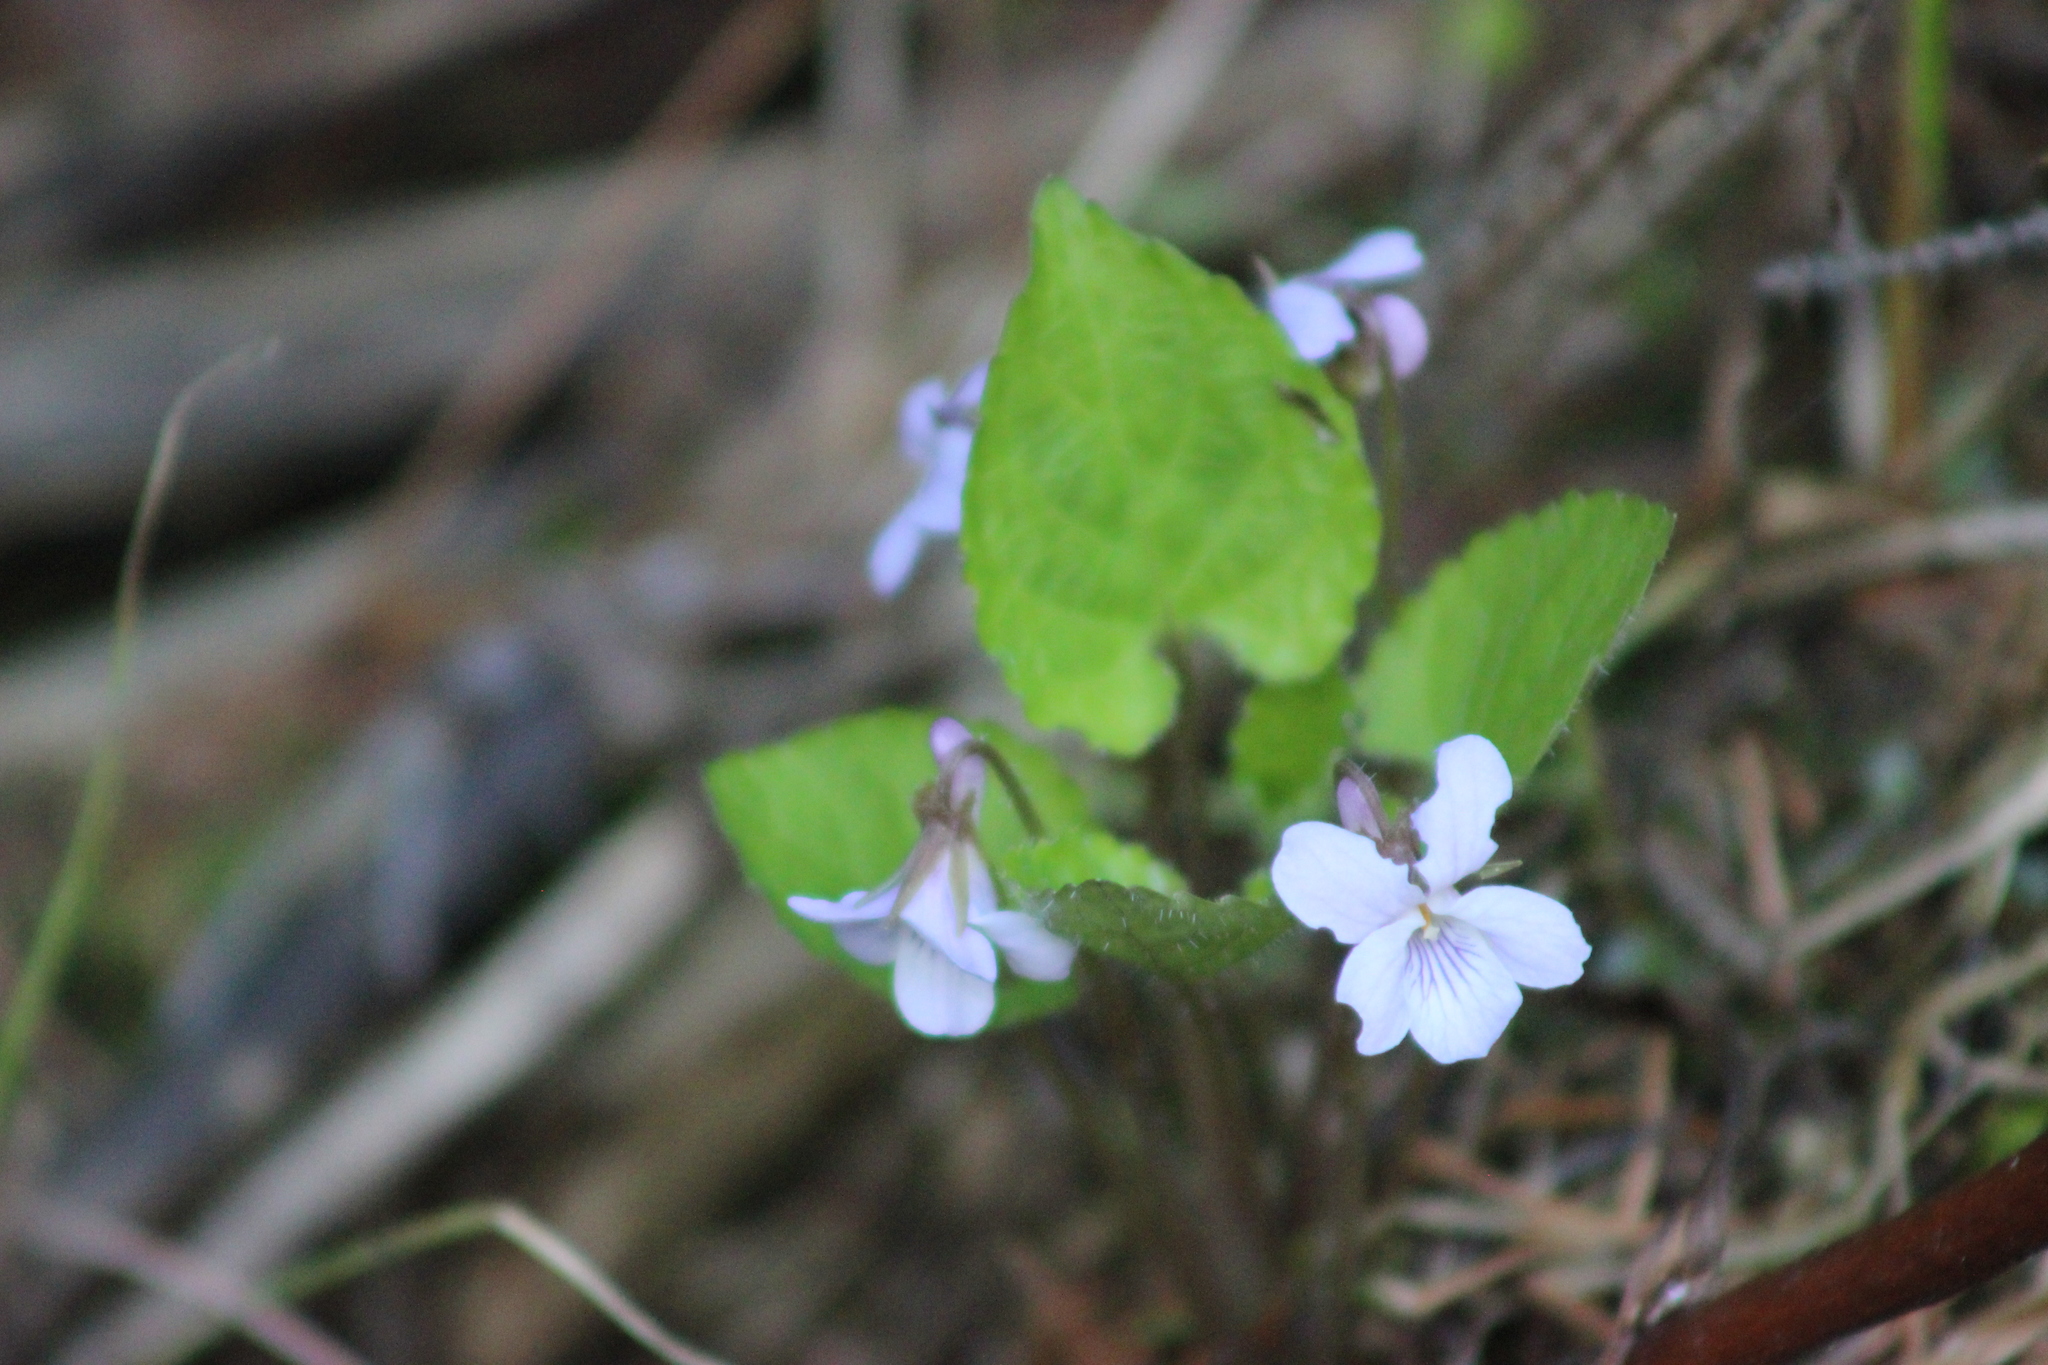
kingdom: Plantae
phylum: Tracheophyta
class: Magnoliopsida
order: Malpighiales
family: Violaceae
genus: Viola
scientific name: Viola selkirkii
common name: Selkirk's violet
